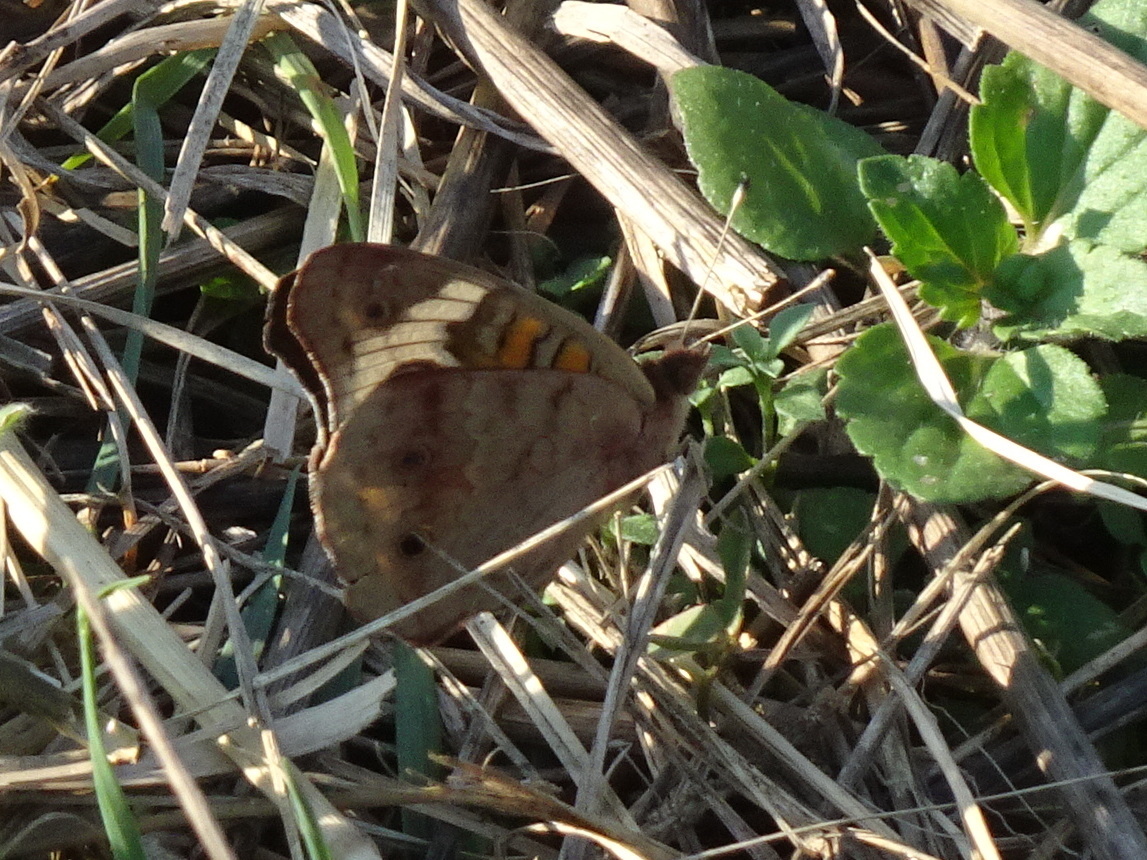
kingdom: Animalia
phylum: Arthropoda
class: Insecta
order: Lepidoptera
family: Nymphalidae
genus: Junonia
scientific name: Junonia coenia
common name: Common buckeye
